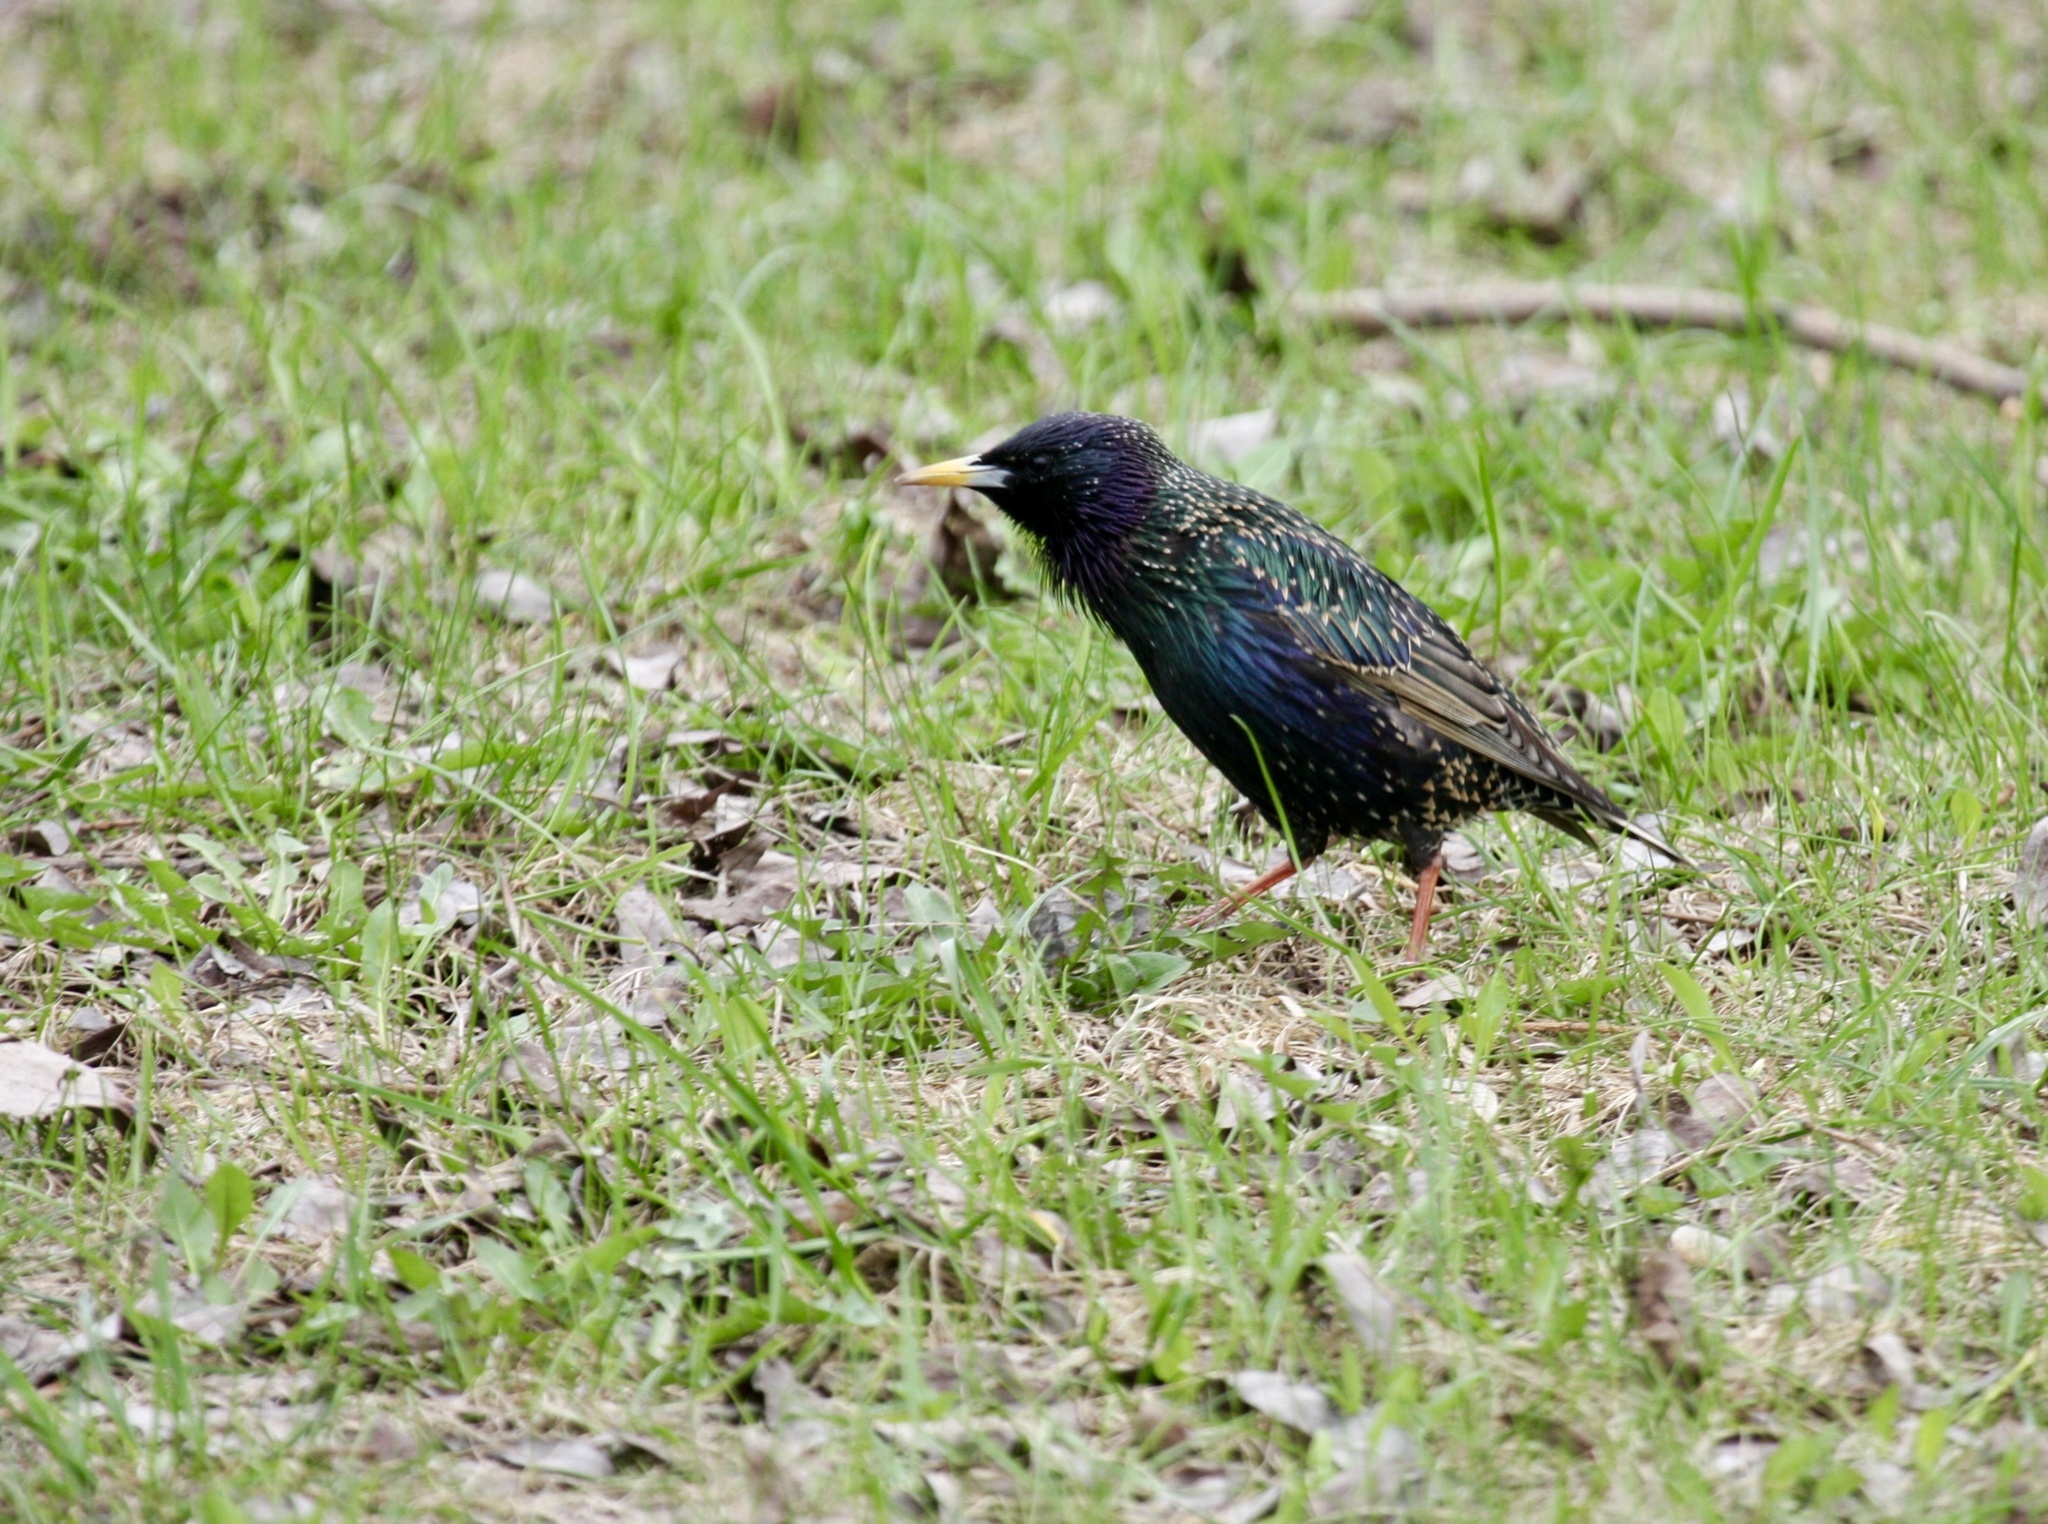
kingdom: Animalia
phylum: Chordata
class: Aves
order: Passeriformes
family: Sturnidae
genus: Sturnus
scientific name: Sturnus vulgaris
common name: Common starling
